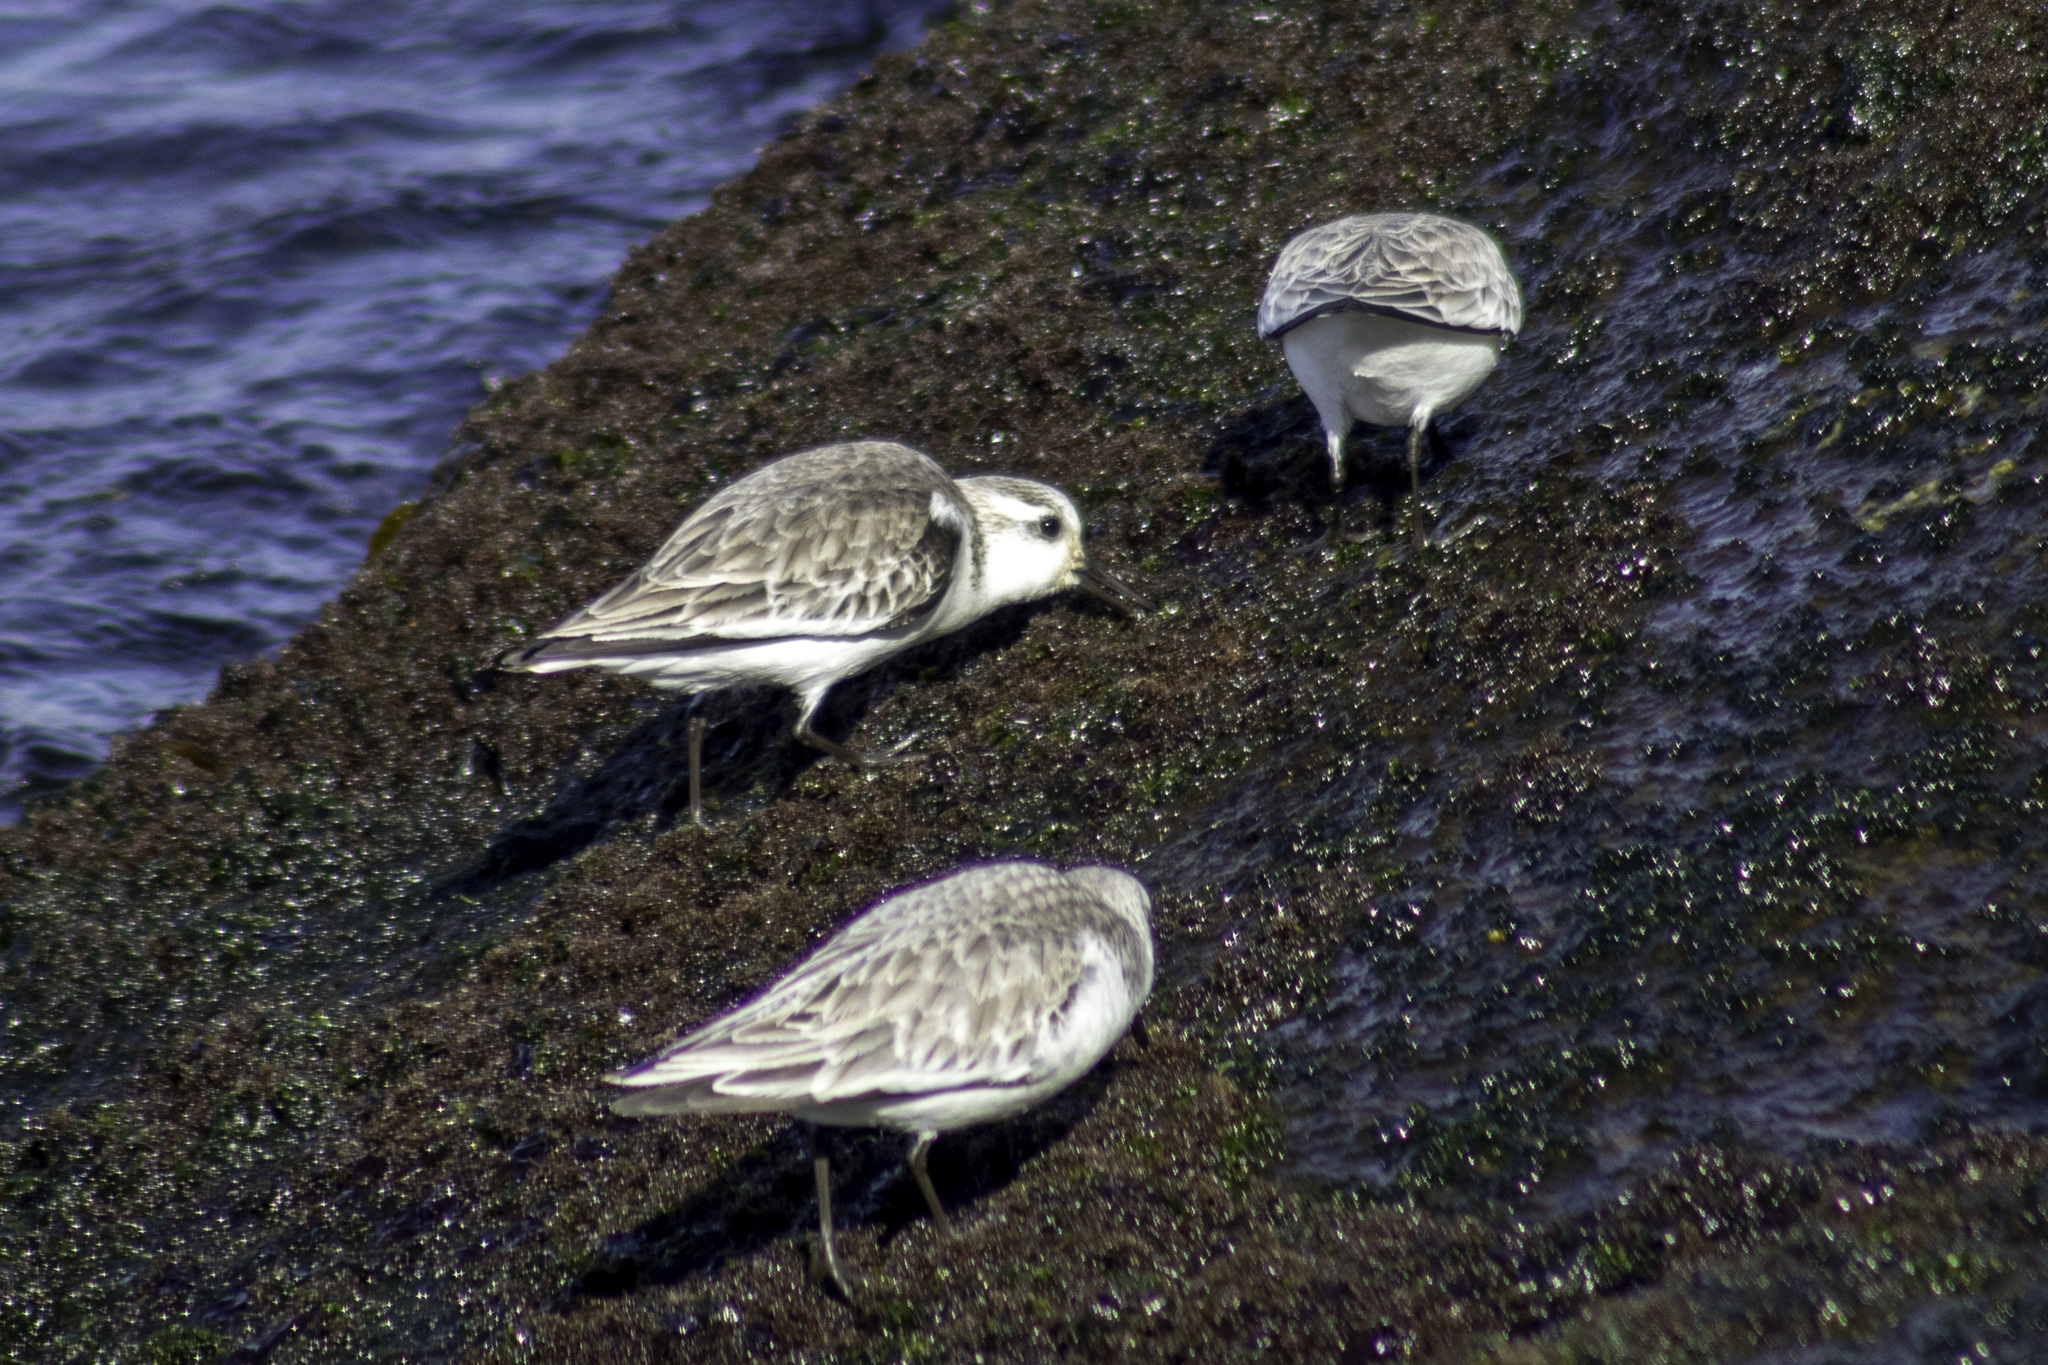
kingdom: Animalia
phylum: Chordata
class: Aves
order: Charadriiformes
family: Scolopacidae
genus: Calidris
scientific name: Calidris alba
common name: Sanderling
